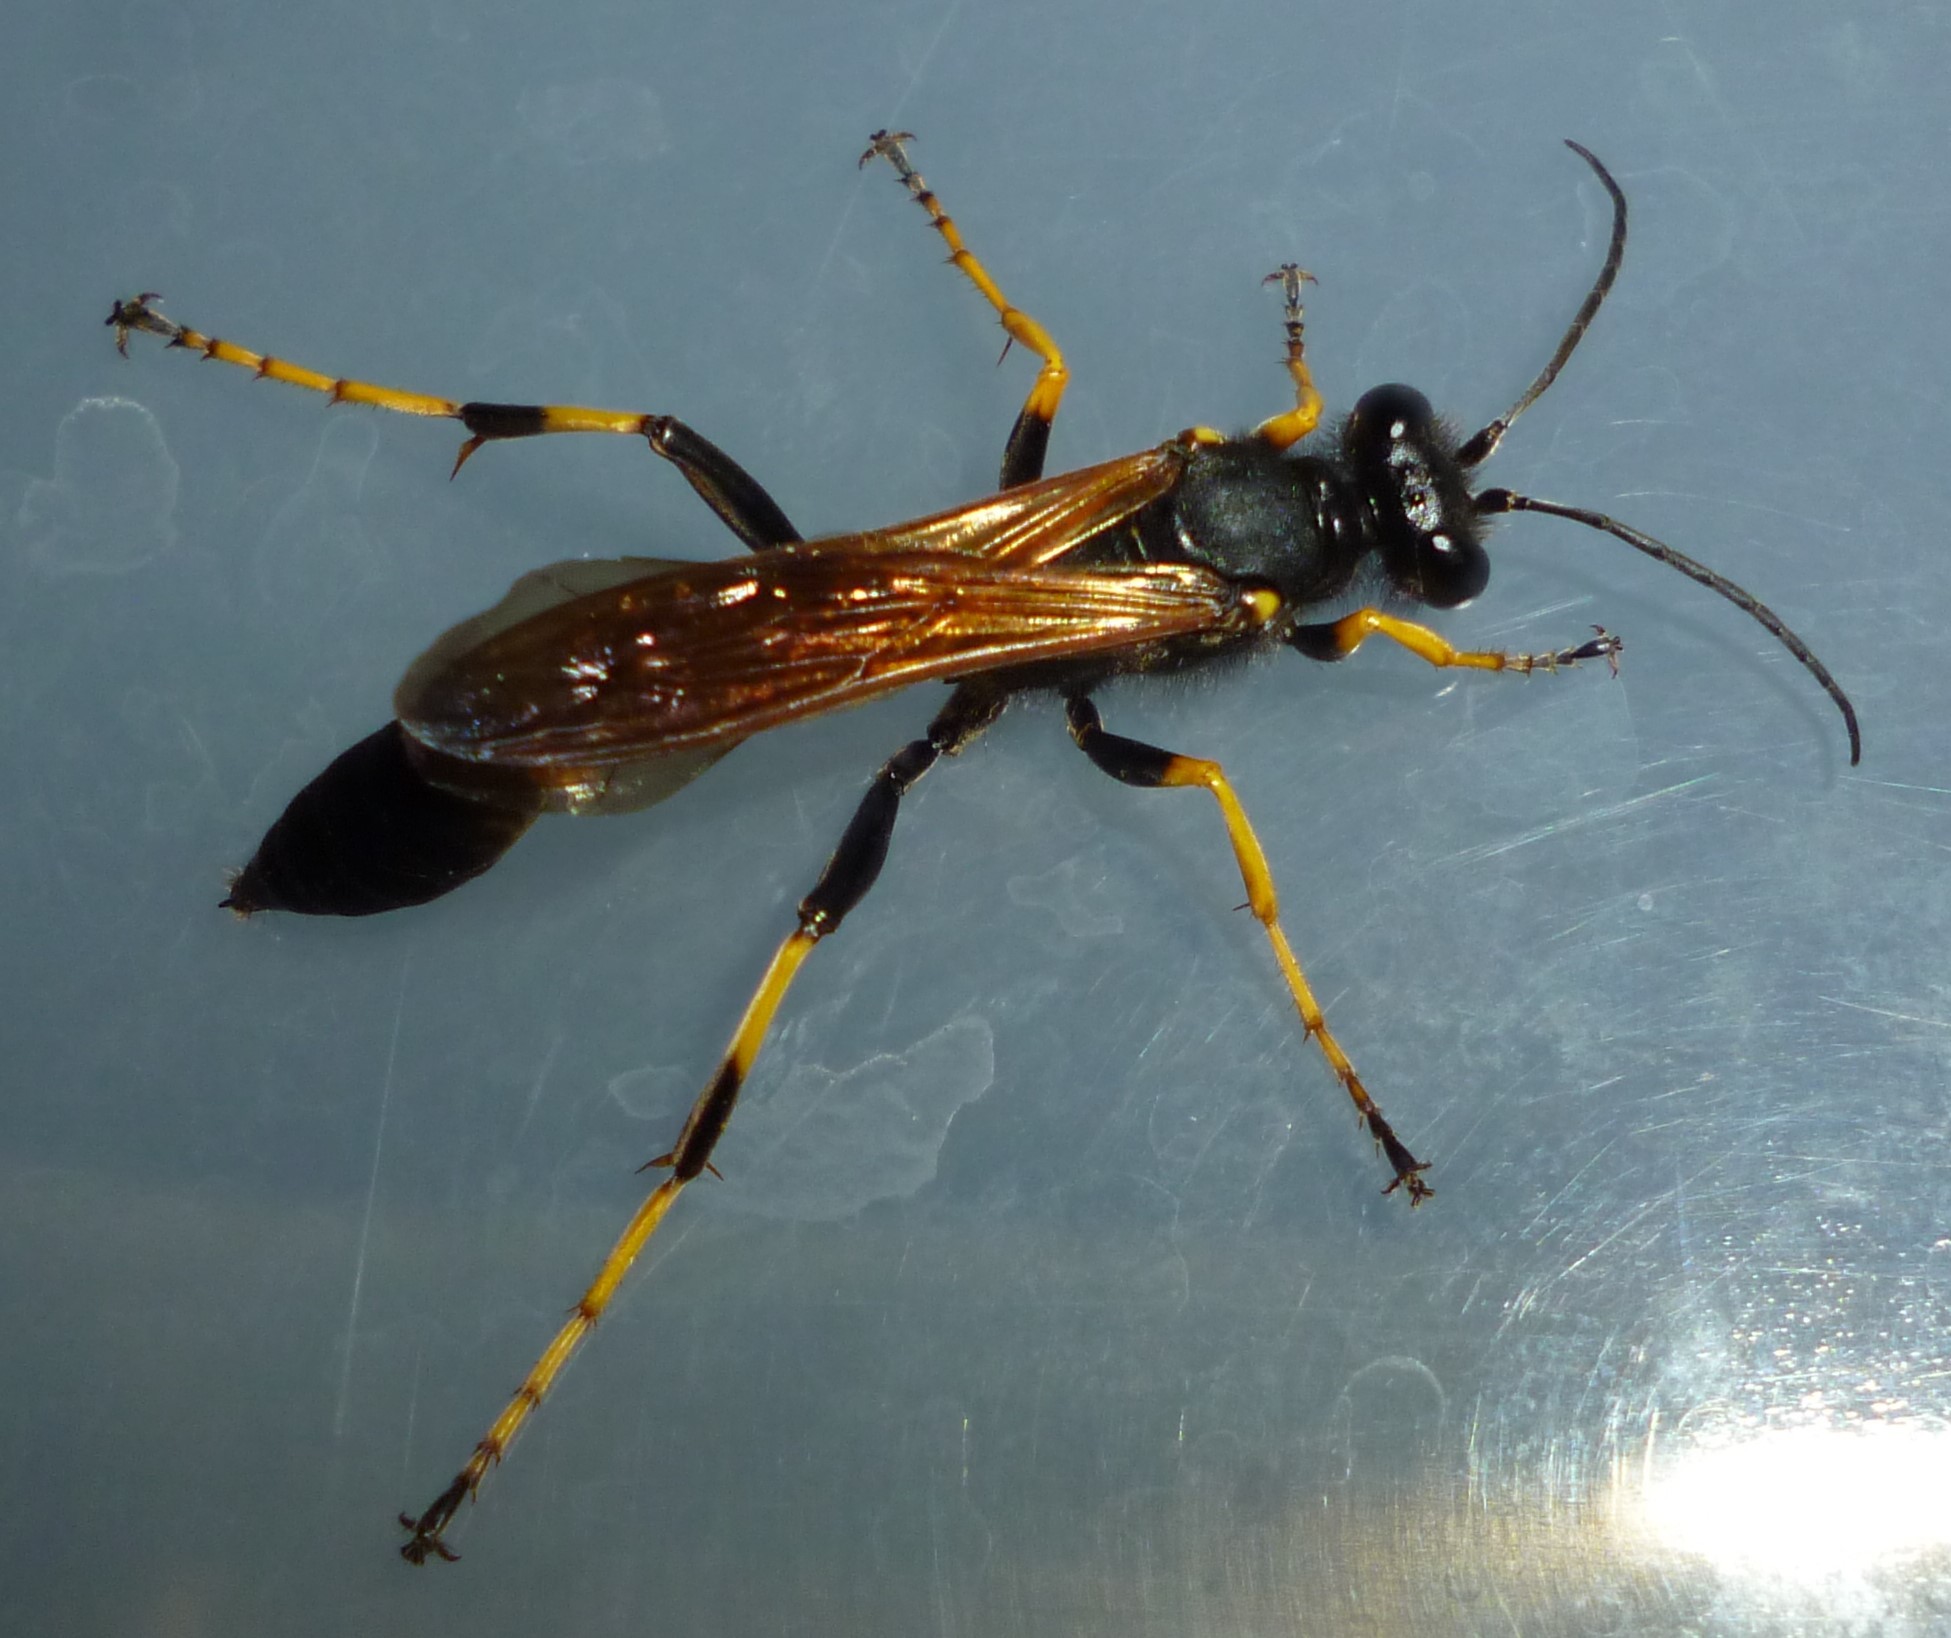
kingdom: Animalia
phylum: Arthropoda
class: Insecta
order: Hymenoptera
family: Sphecidae
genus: Sceliphron
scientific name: Sceliphron caementarium
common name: Mud dauber
